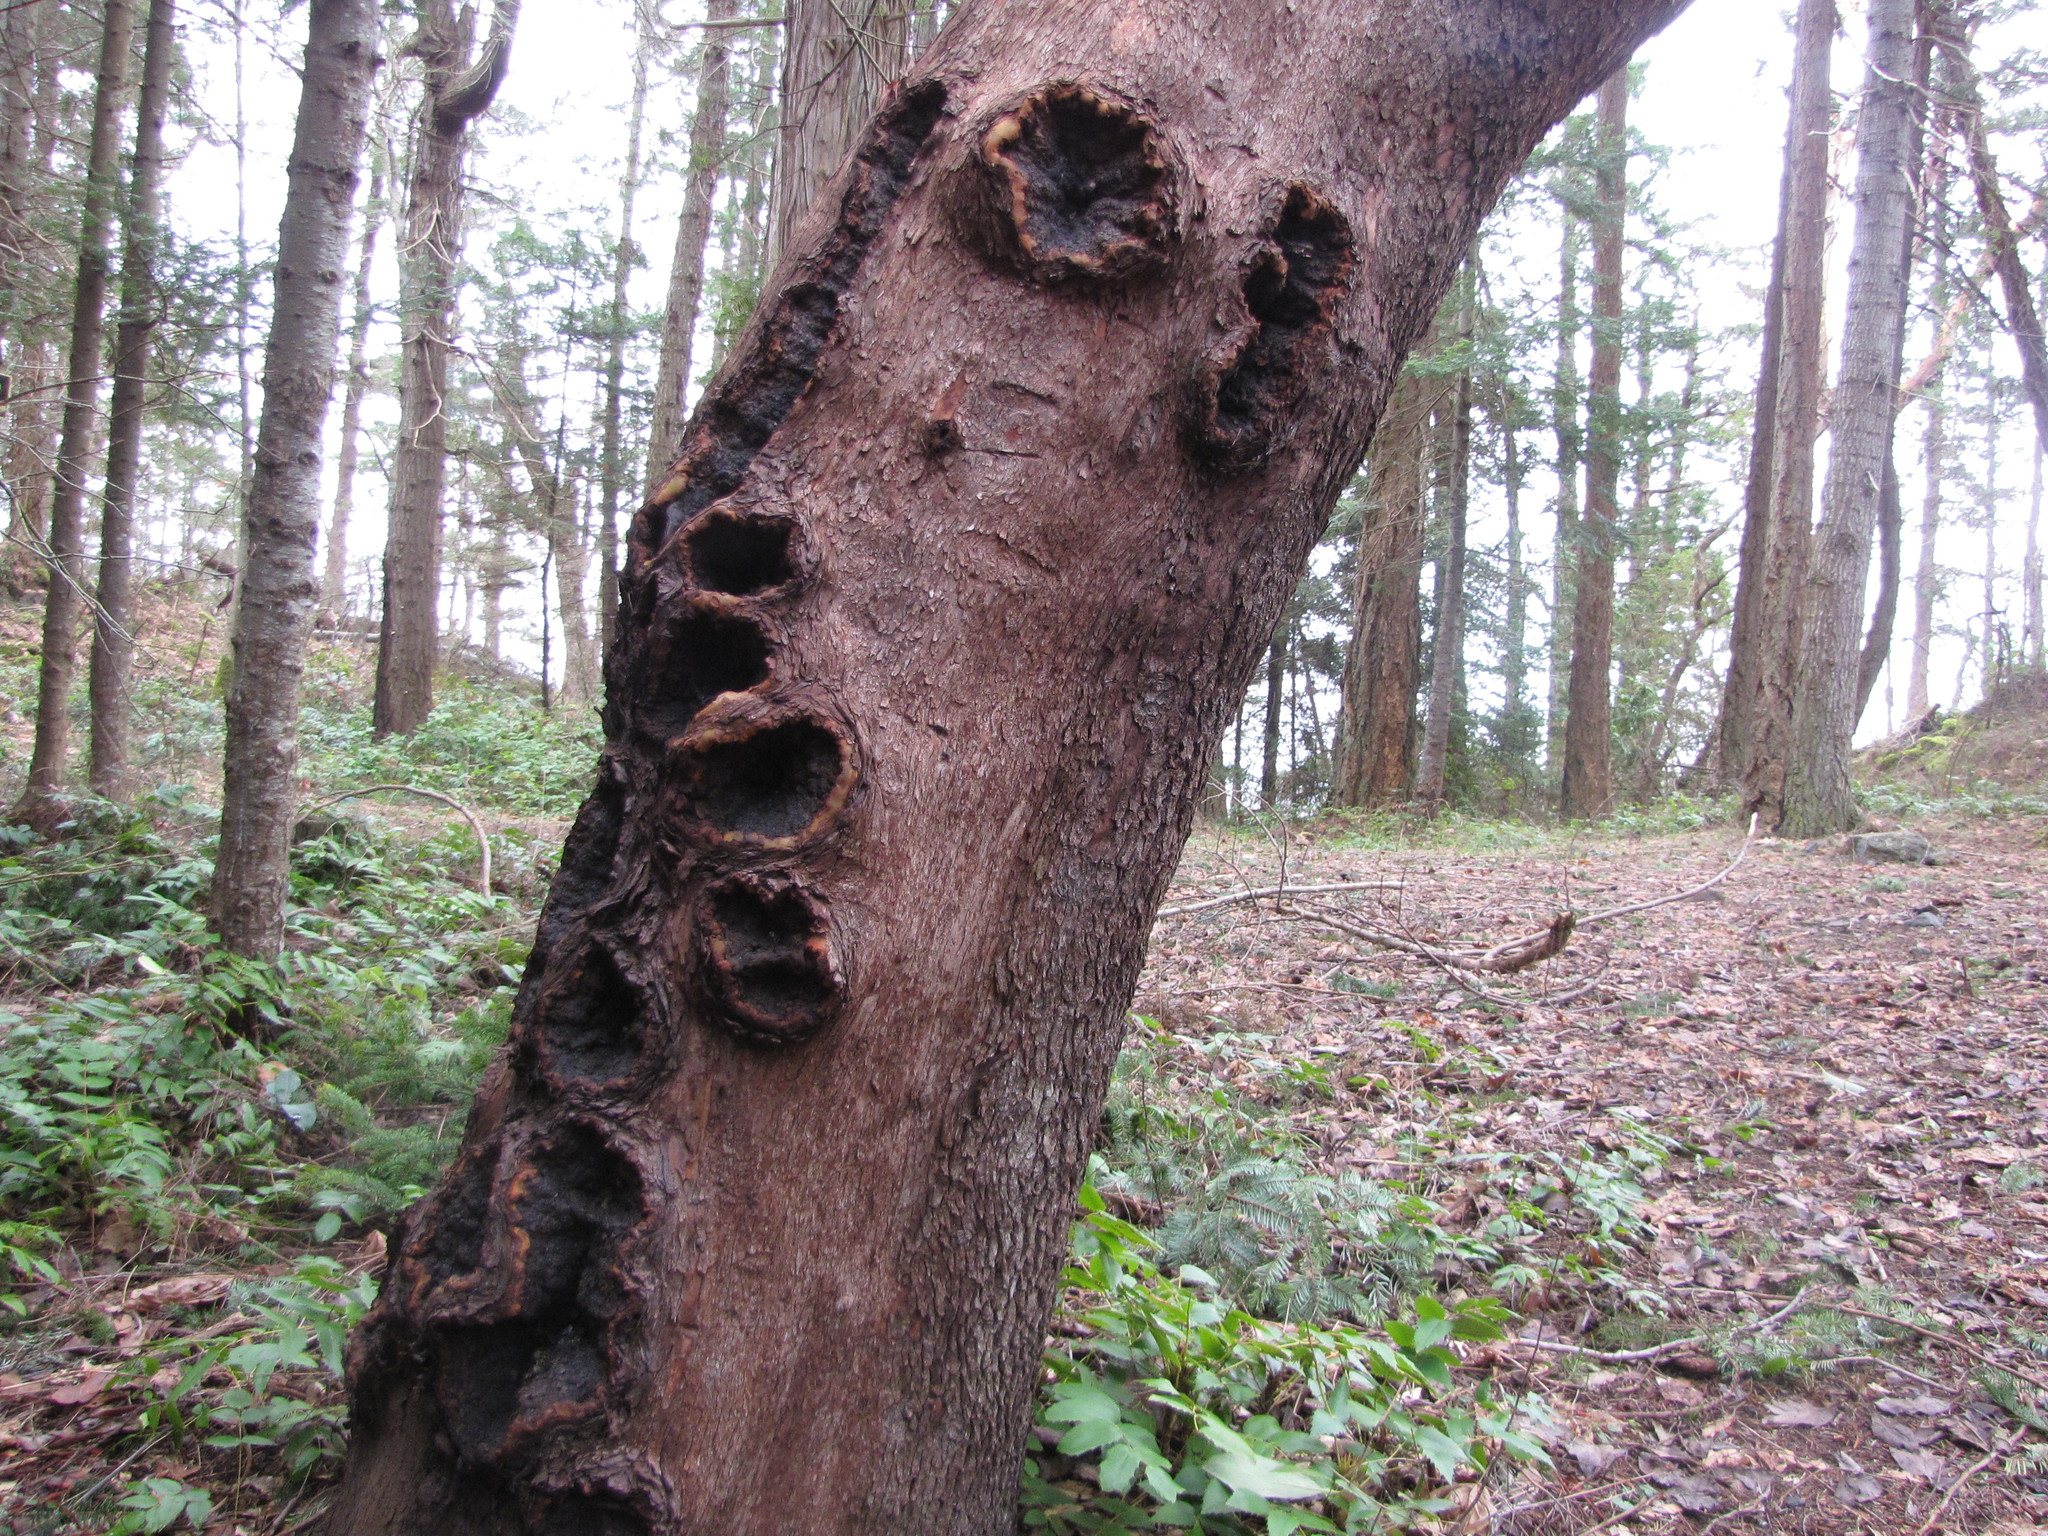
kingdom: Plantae
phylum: Tracheophyta
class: Magnoliopsida
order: Ericales
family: Ericaceae
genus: Arbutus
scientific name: Arbutus menziesii
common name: Pacific madrone
